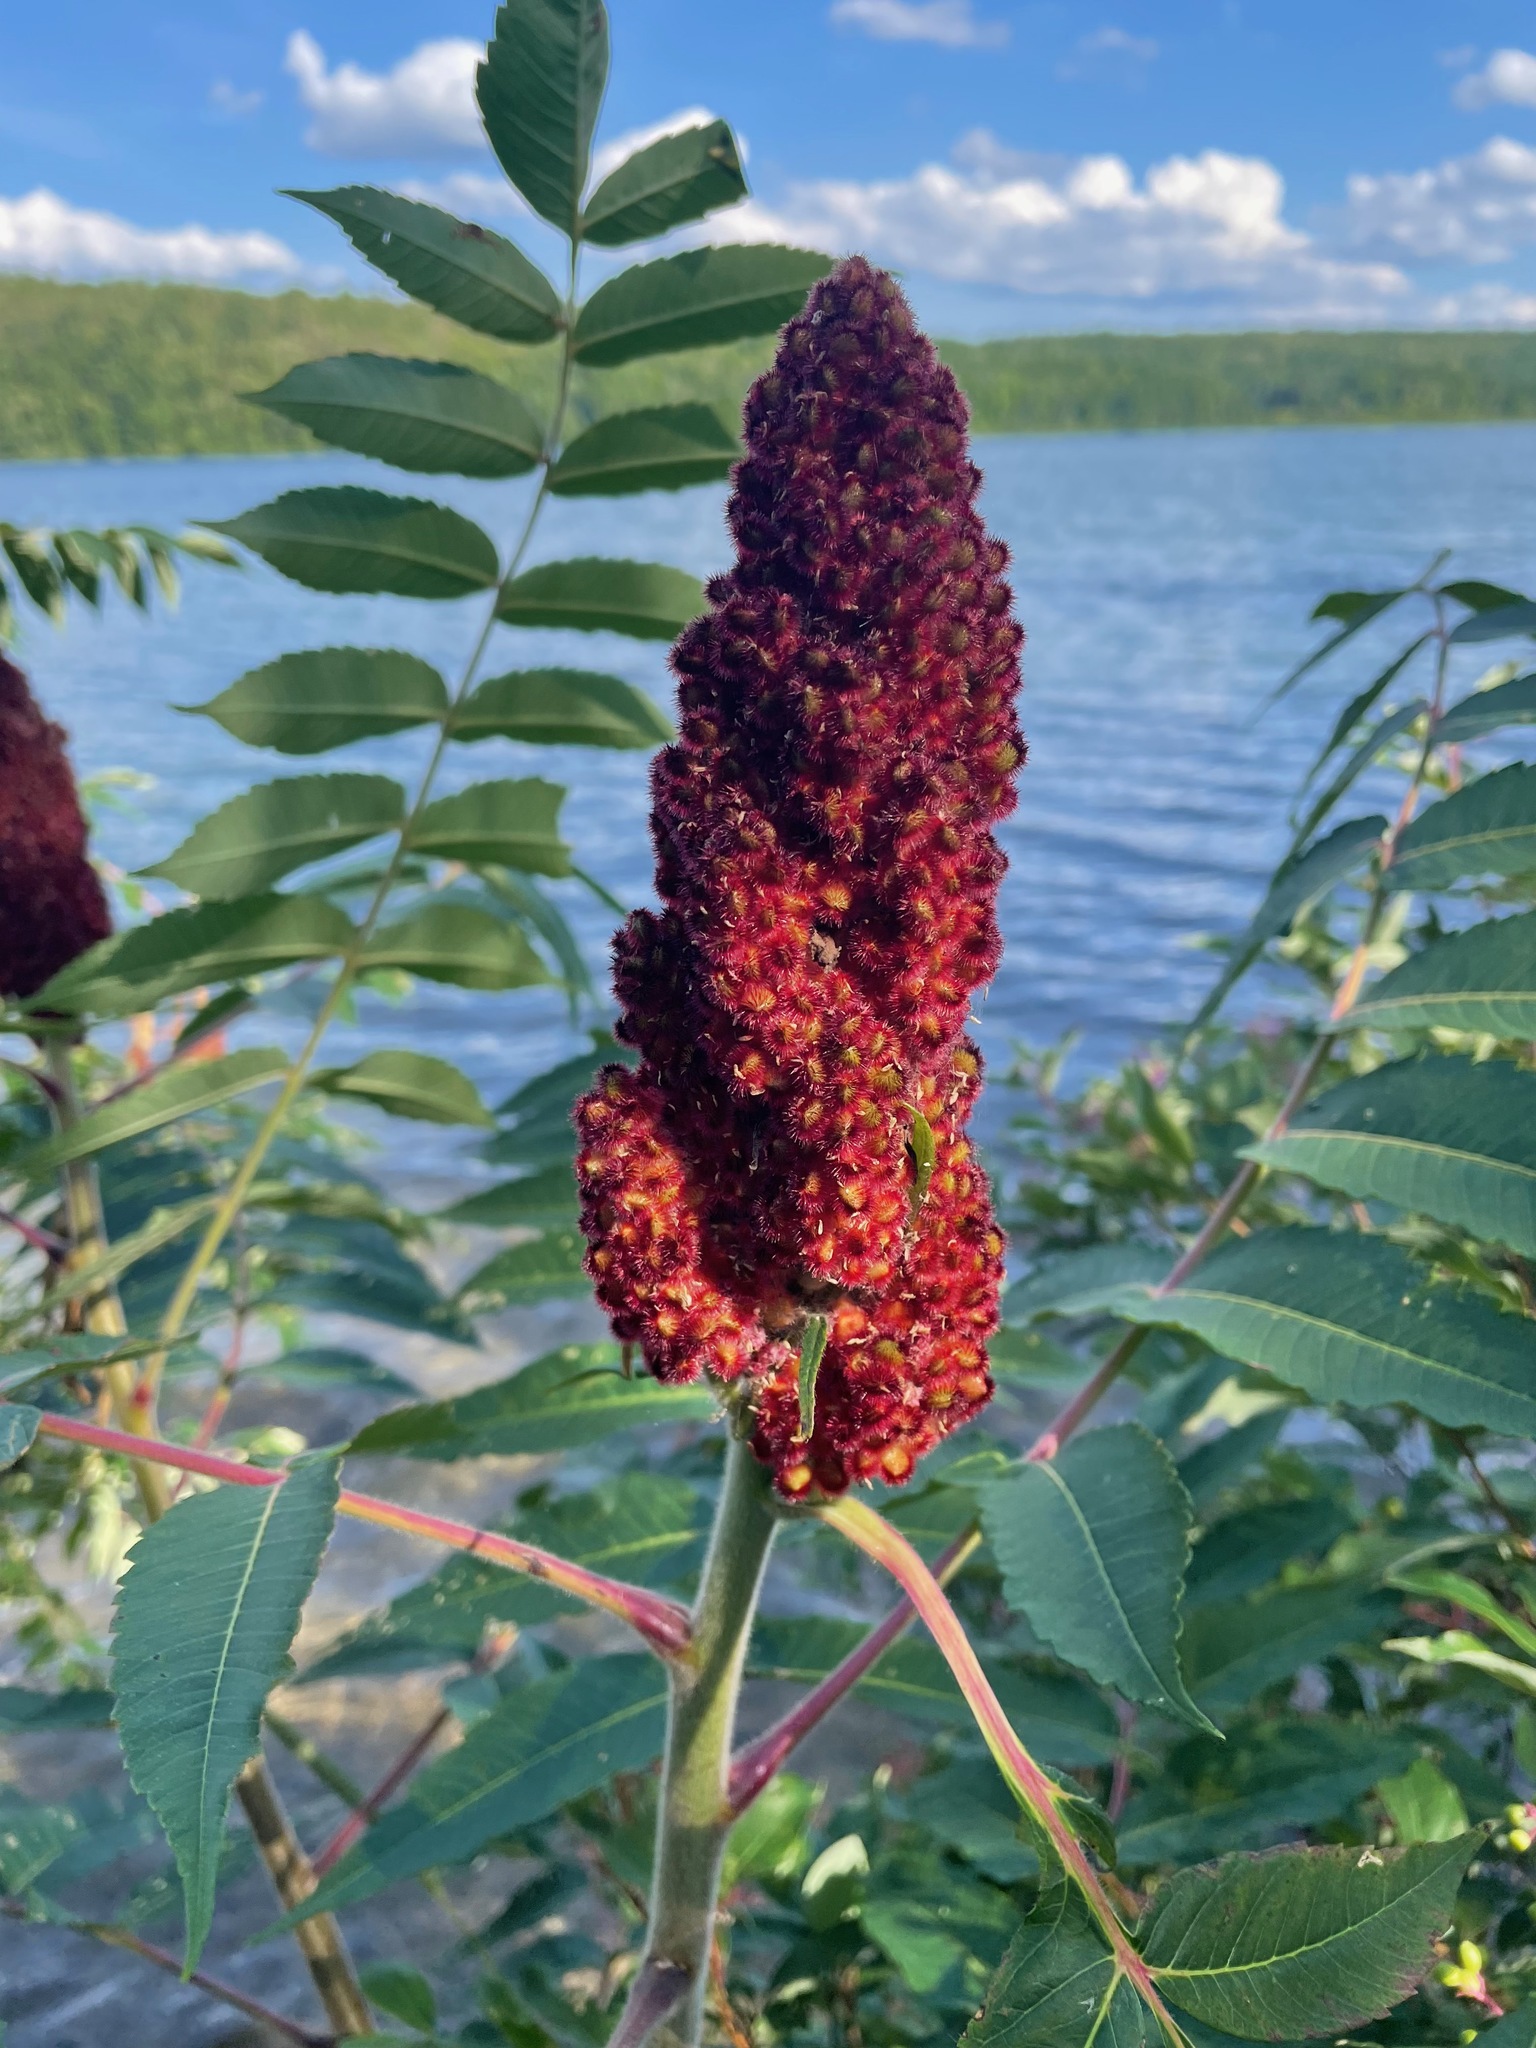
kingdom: Plantae
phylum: Tracheophyta
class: Magnoliopsida
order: Sapindales
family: Anacardiaceae
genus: Rhus
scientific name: Rhus typhina
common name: Staghorn sumac
